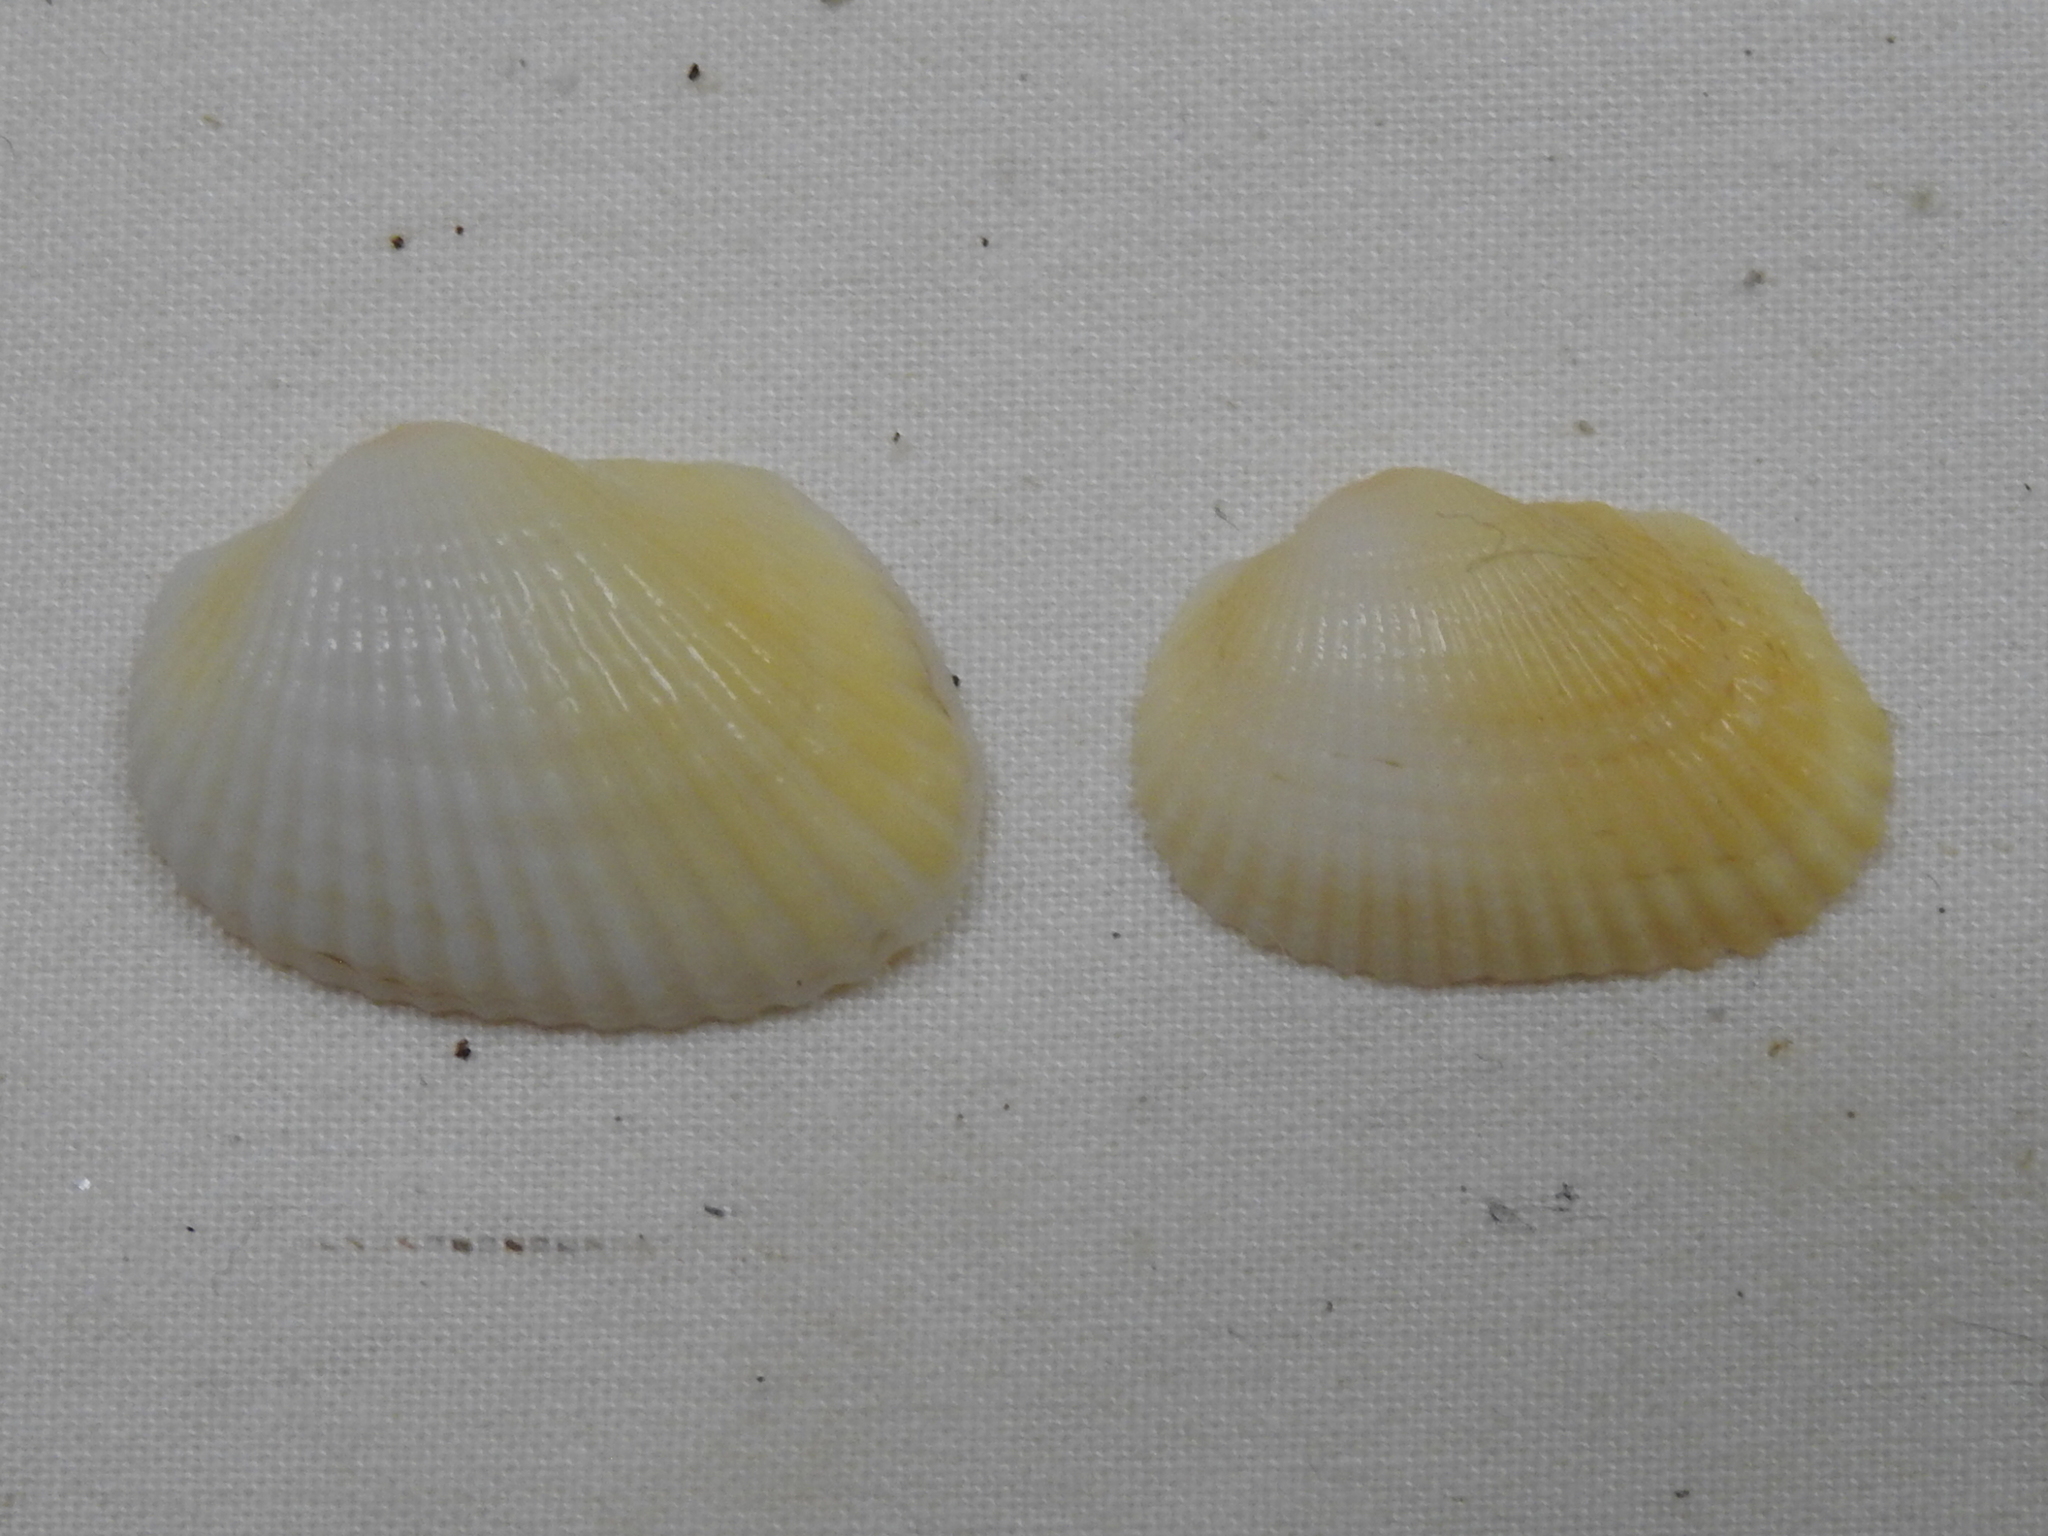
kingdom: Animalia
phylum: Mollusca
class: Bivalvia
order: Arcida
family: Arcidae
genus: Anadara
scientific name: Anadara transversa
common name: Transverse ark
